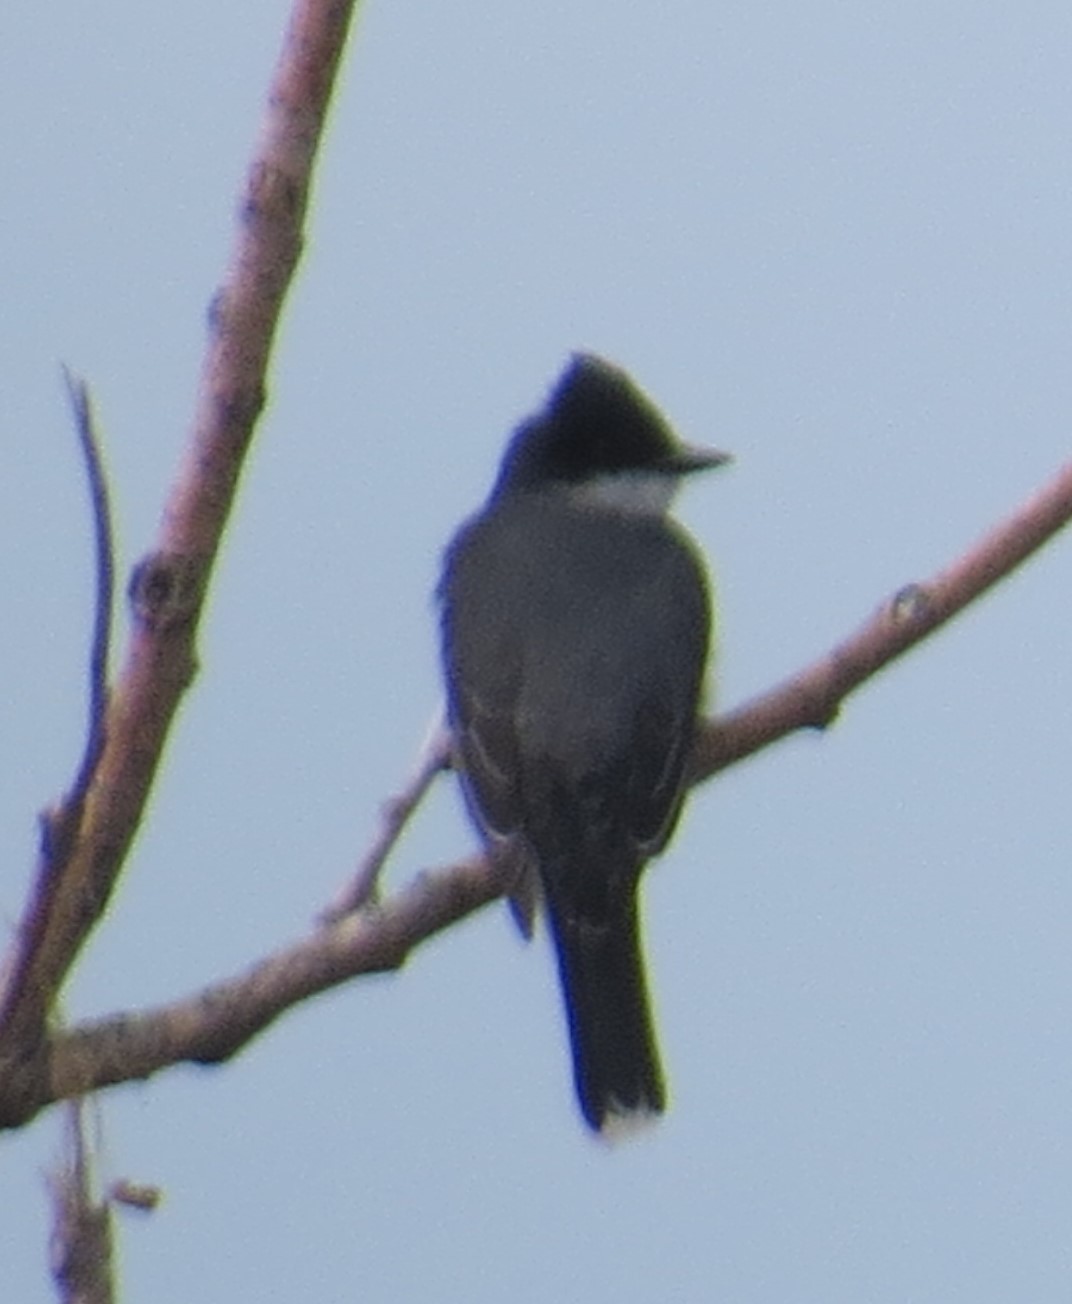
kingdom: Animalia
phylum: Chordata
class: Aves
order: Passeriformes
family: Tyrannidae
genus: Tyrannus
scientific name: Tyrannus tyrannus
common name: Eastern kingbird
